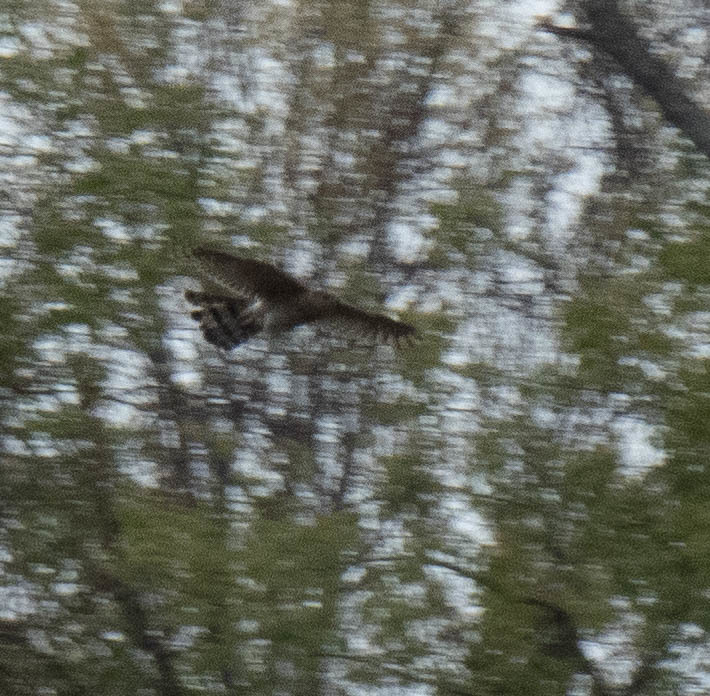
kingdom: Animalia
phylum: Chordata
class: Aves
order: Accipitriformes
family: Accipitridae
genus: Accipiter
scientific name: Accipiter cooperii
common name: Cooper's hawk
